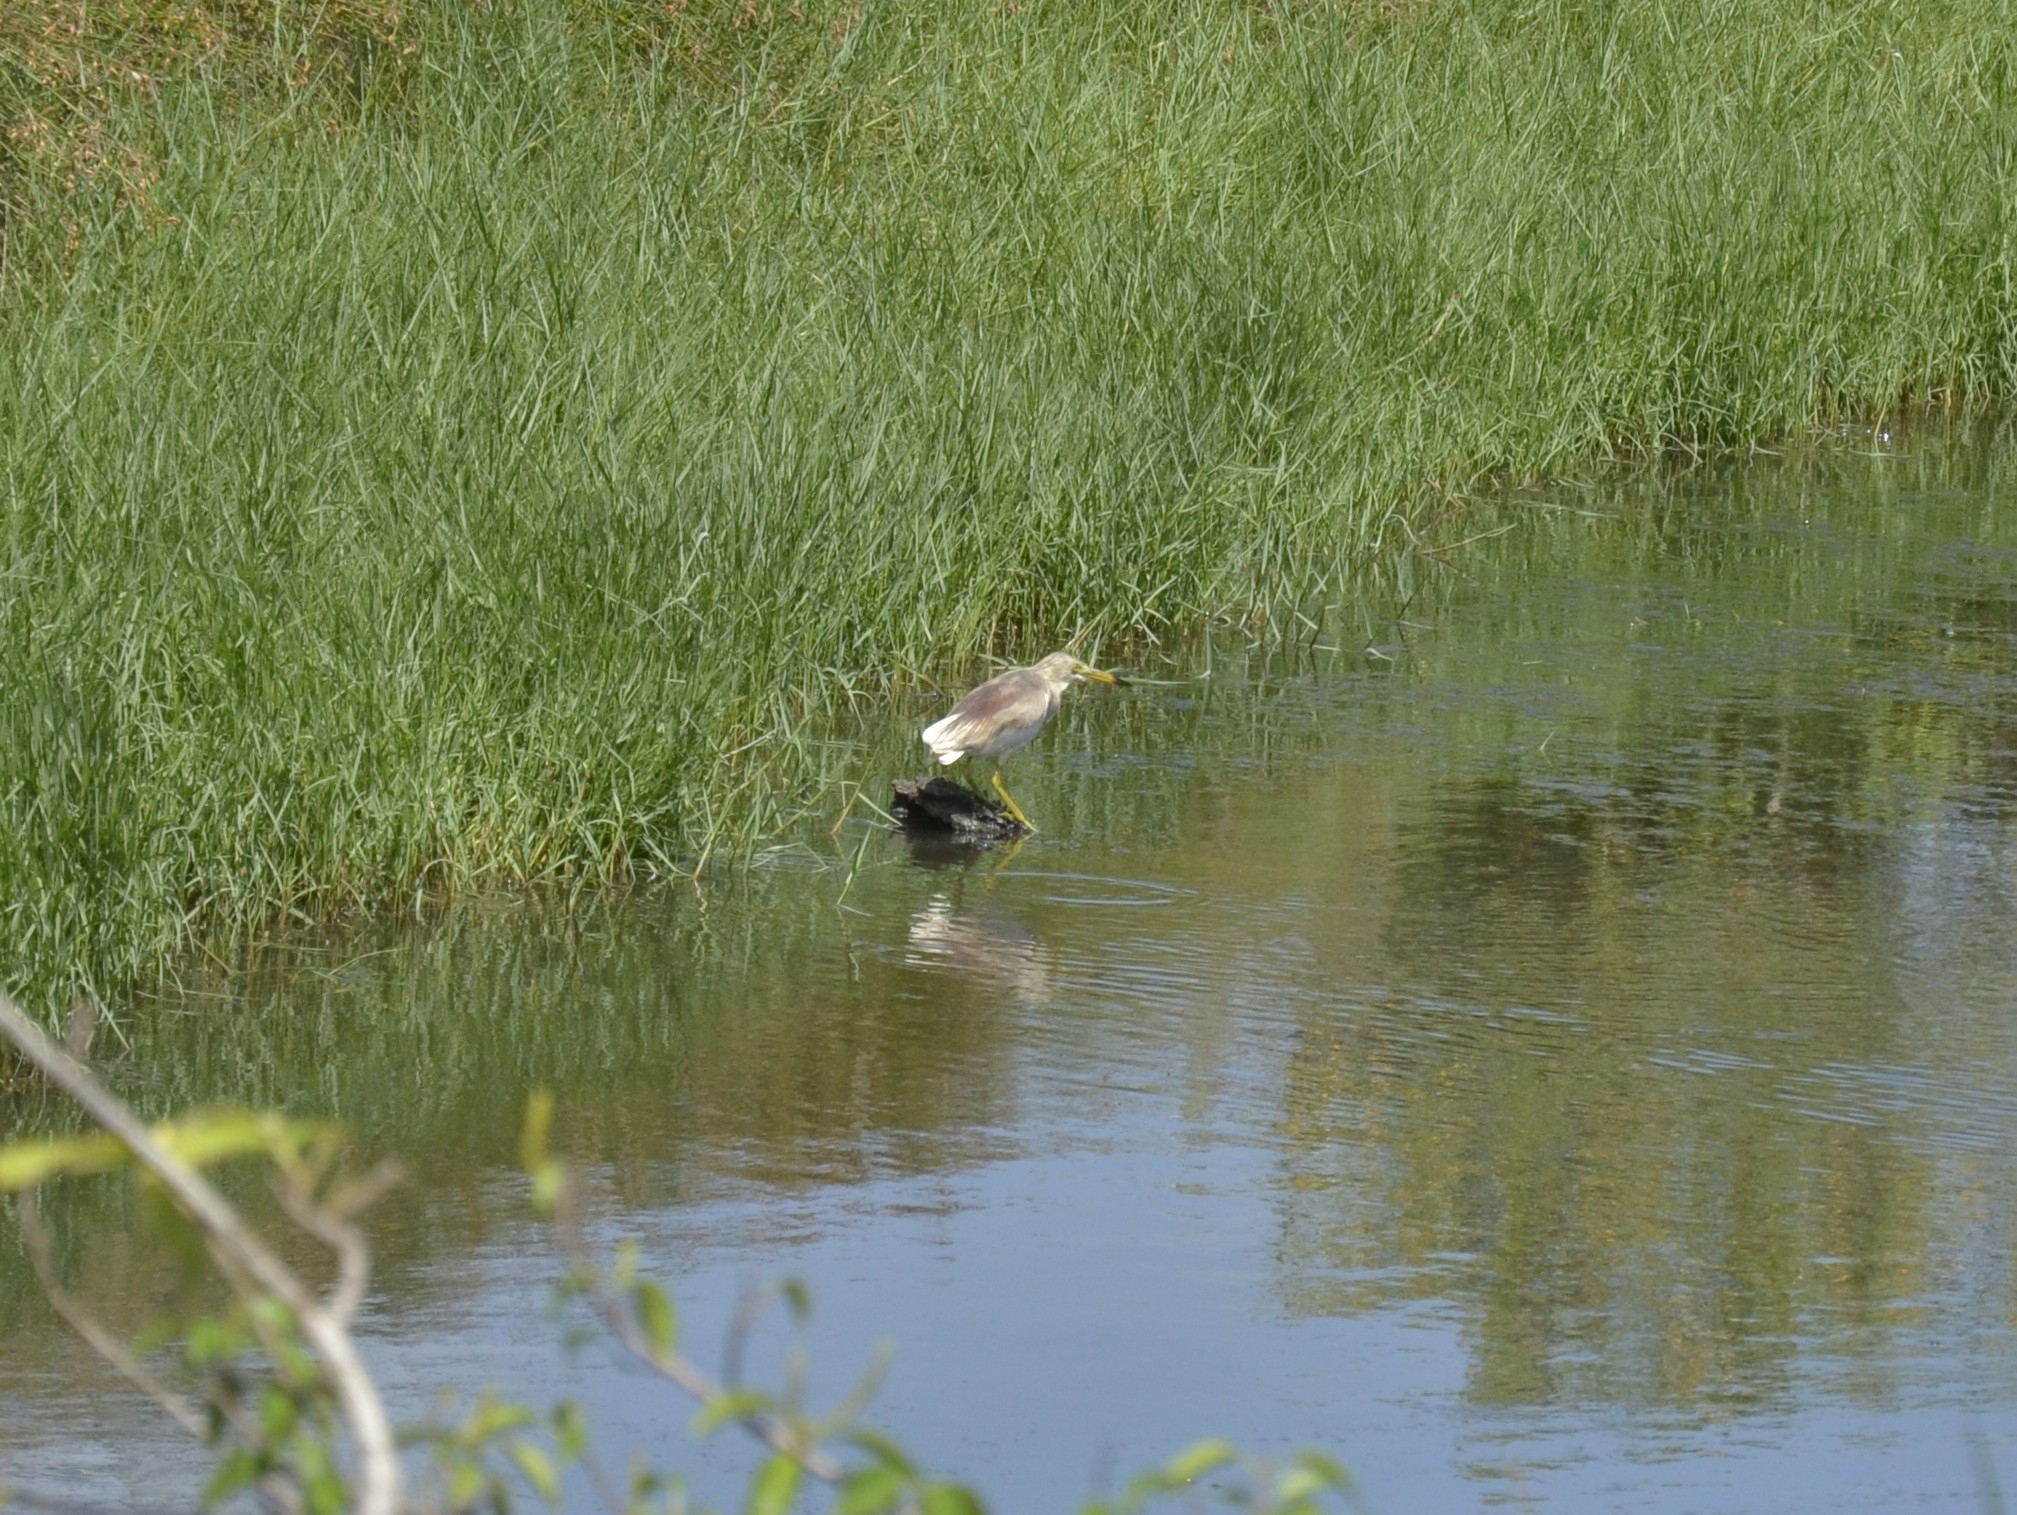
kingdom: Animalia
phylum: Chordata
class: Aves
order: Pelecaniformes
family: Ardeidae
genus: Ardeola
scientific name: Ardeola grayii
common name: Indian pond heron
